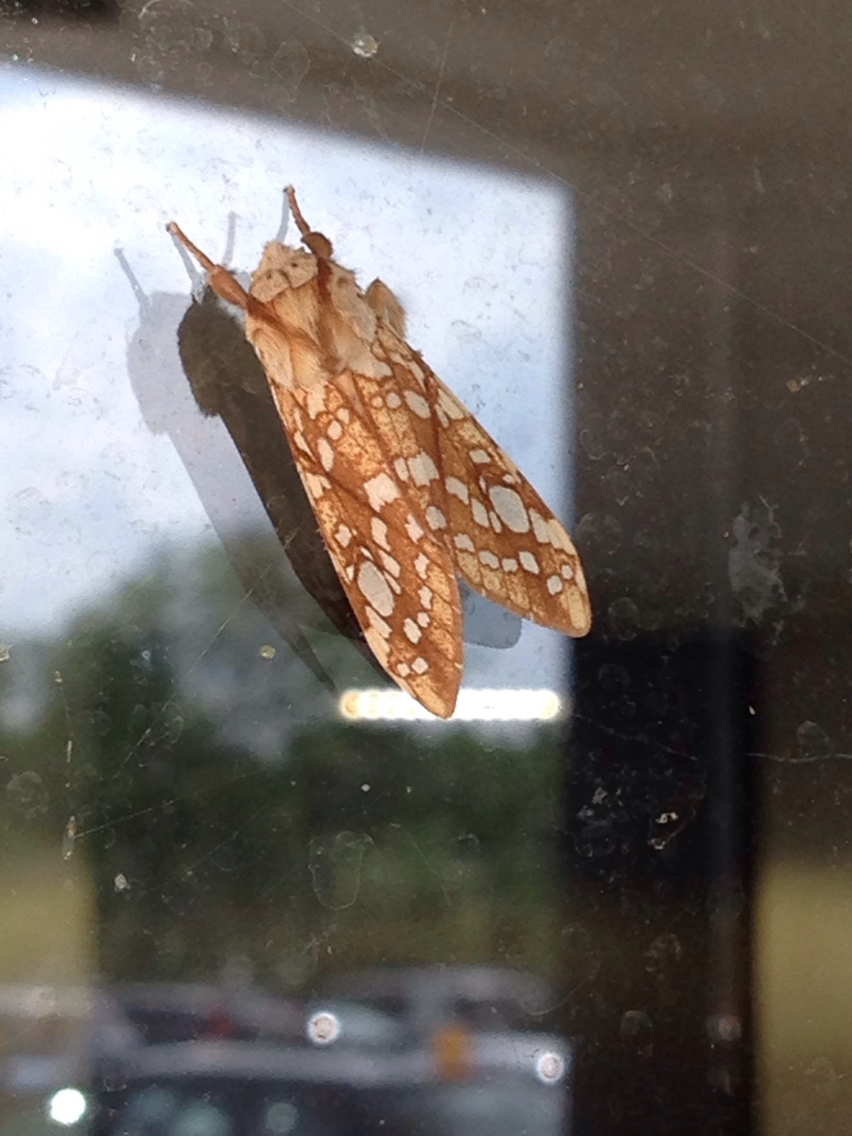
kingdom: Animalia
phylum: Arthropoda
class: Insecta
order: Lepidoptera
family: Erebidae
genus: Lophocampa
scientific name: Lophocampa caryae
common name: Hickory tussock moth
